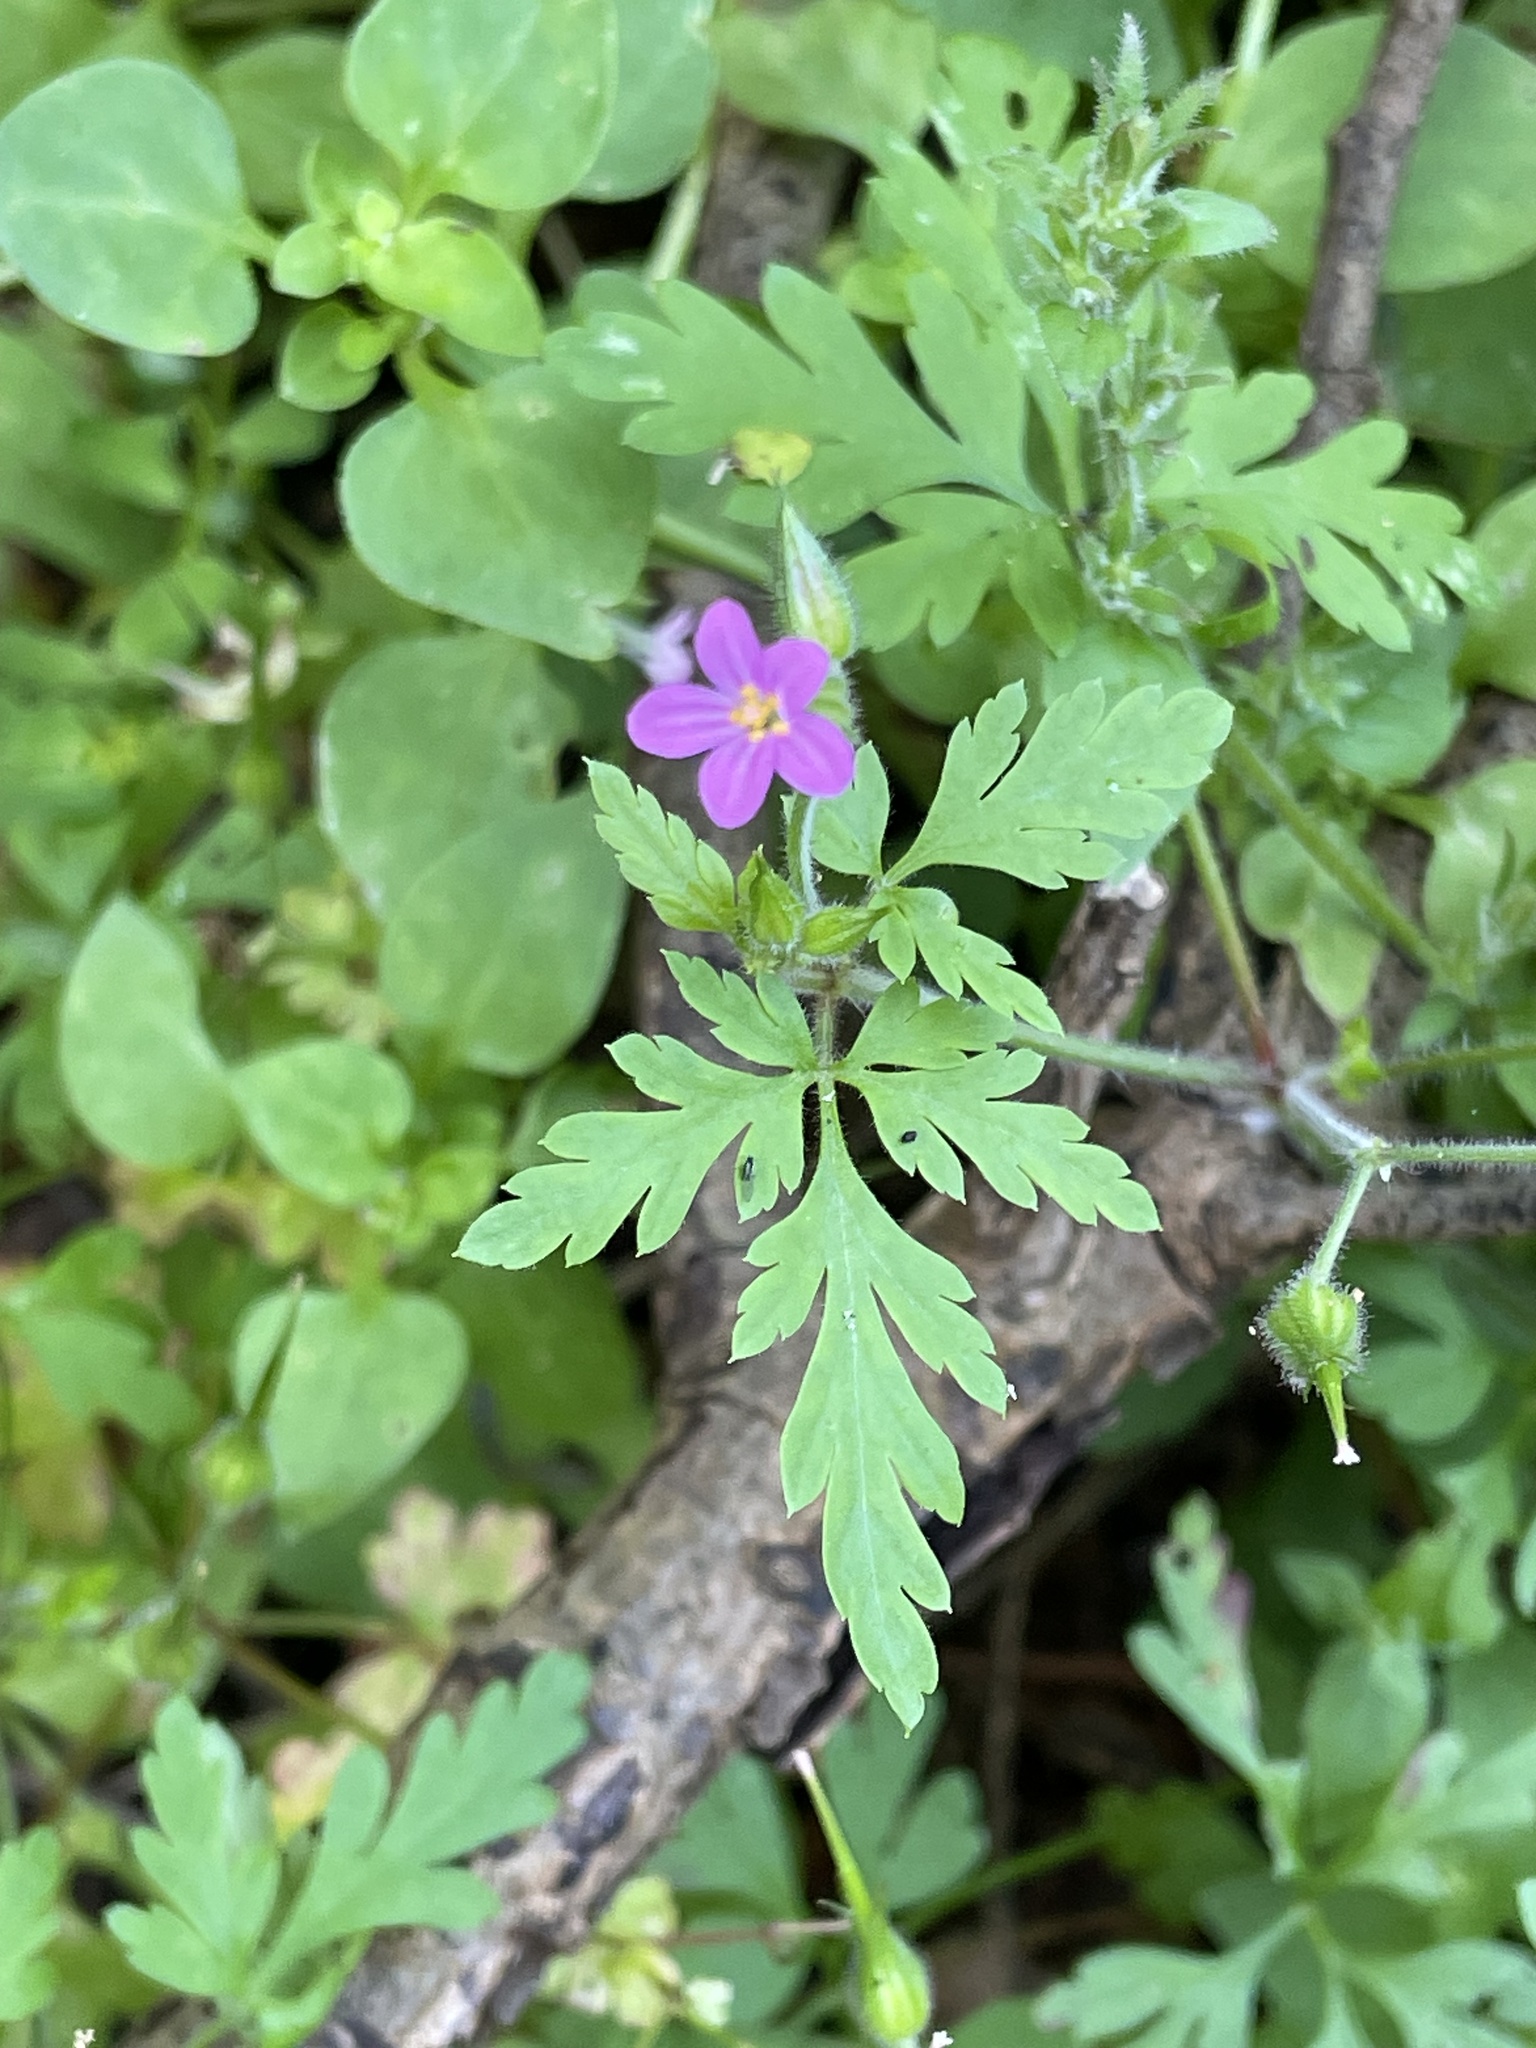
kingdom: Plantae
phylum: Tracheophyta
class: Magnoliopsida
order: Geraniales
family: Geraniaceae
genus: Geranium
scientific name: Geranium purpureum
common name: Little-robin
